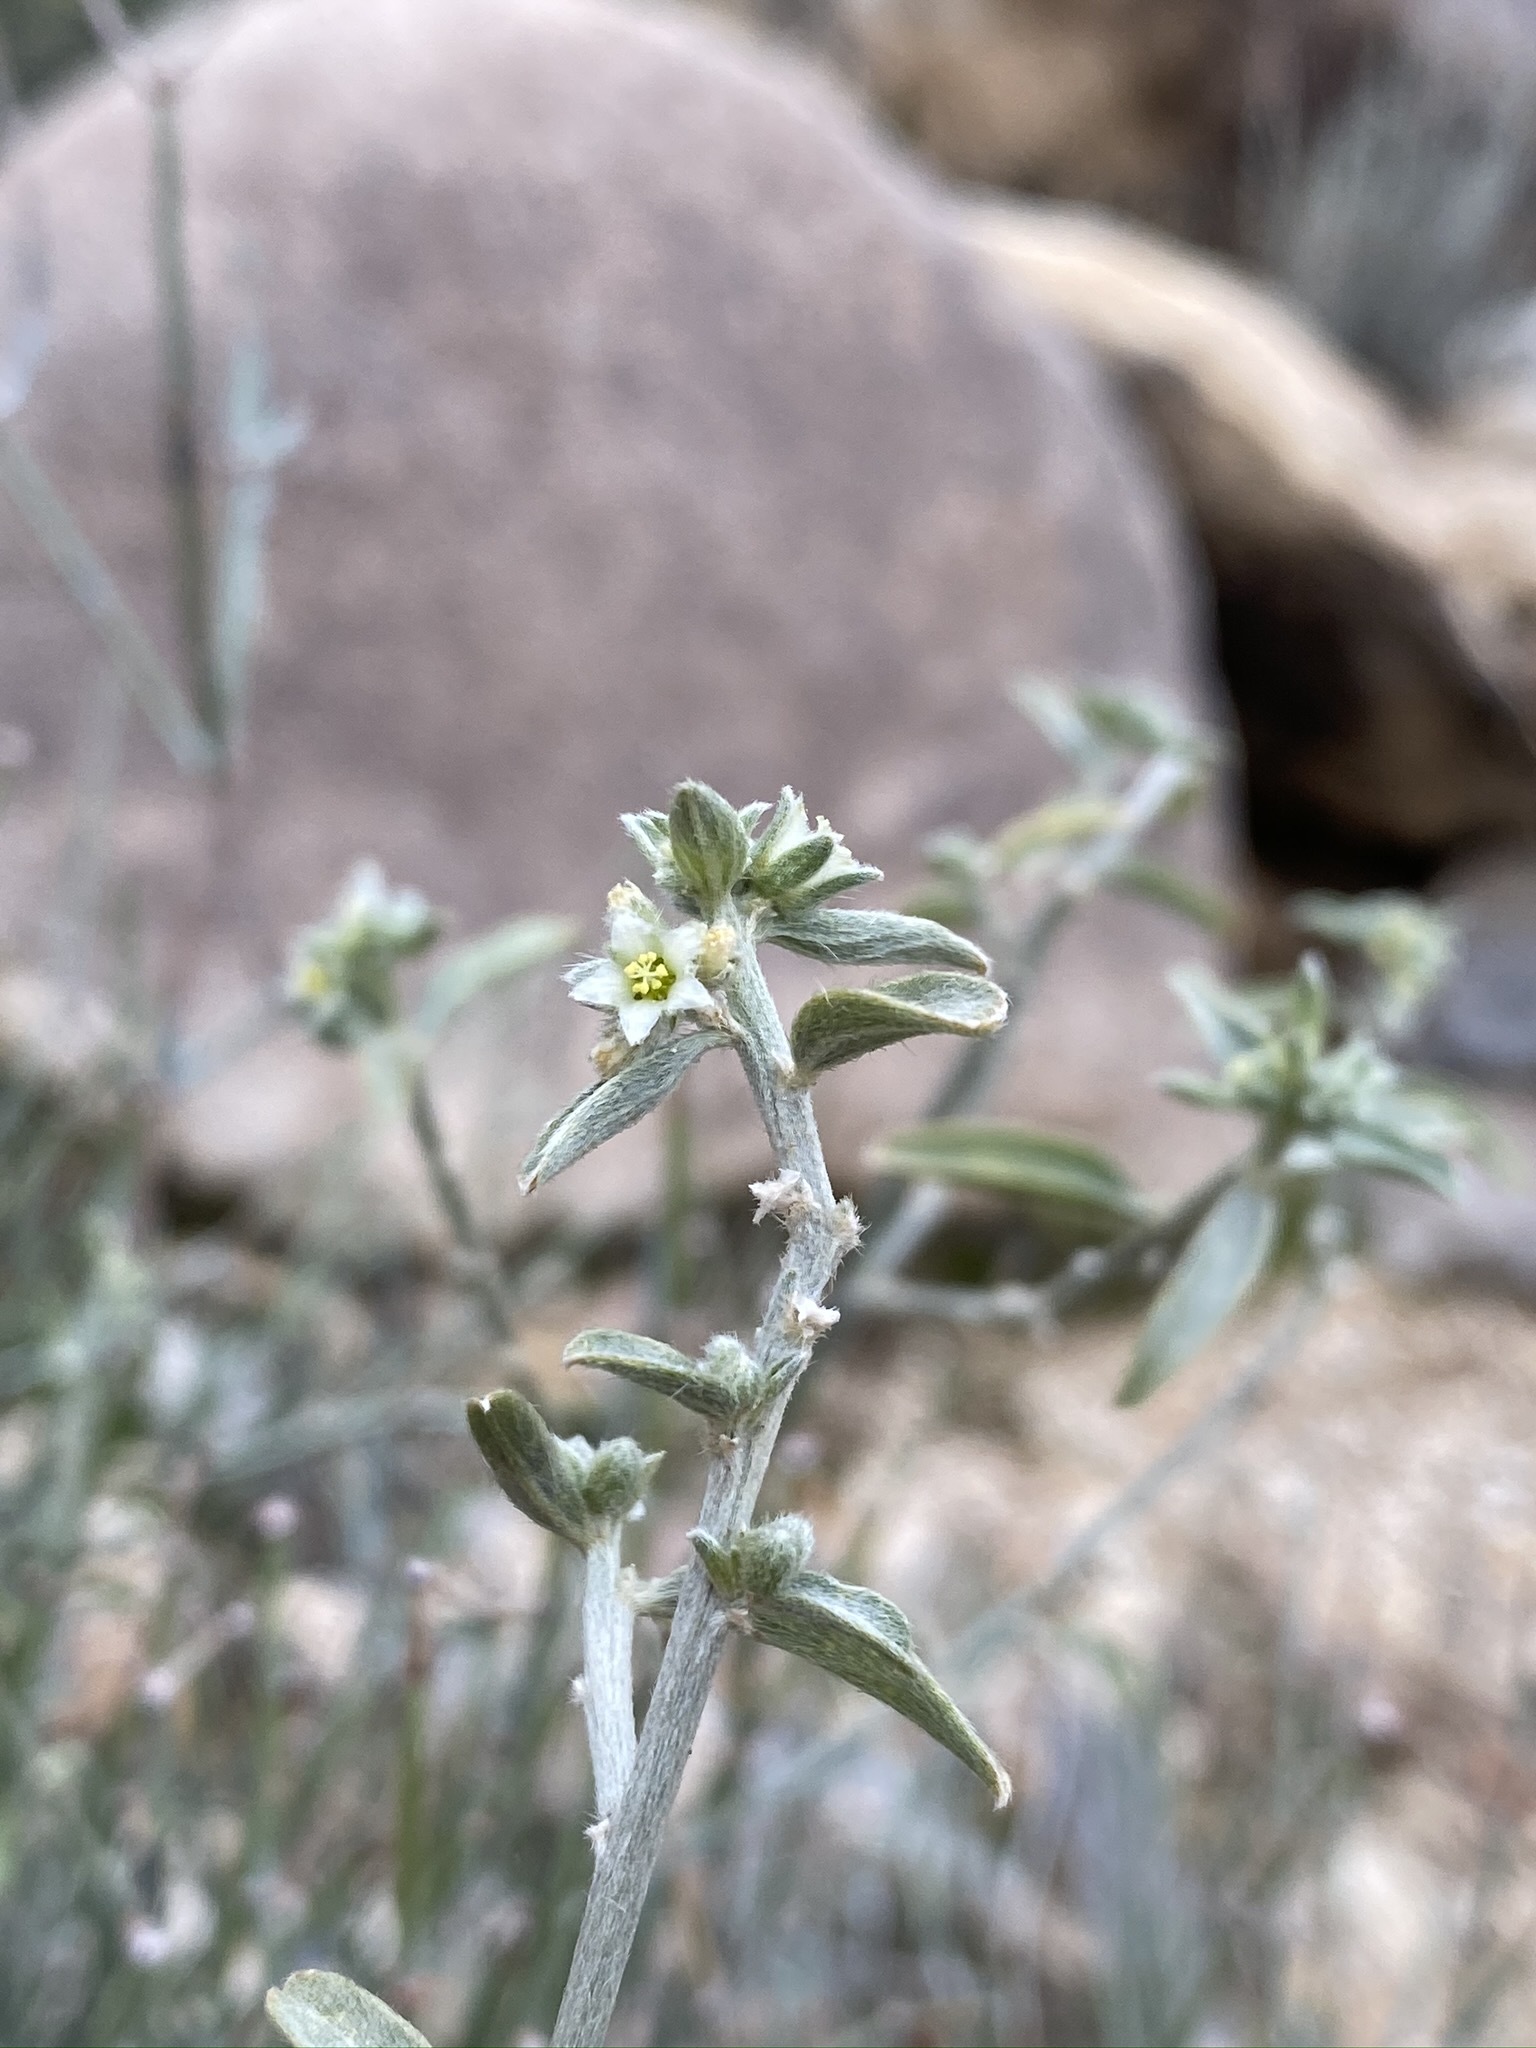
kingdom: Plantae
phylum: Tracheophyta
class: Magnoliopsida
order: Malpighiales
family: Euphorbiaceae
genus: Ditaxis
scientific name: Ditaxis lanceolata
